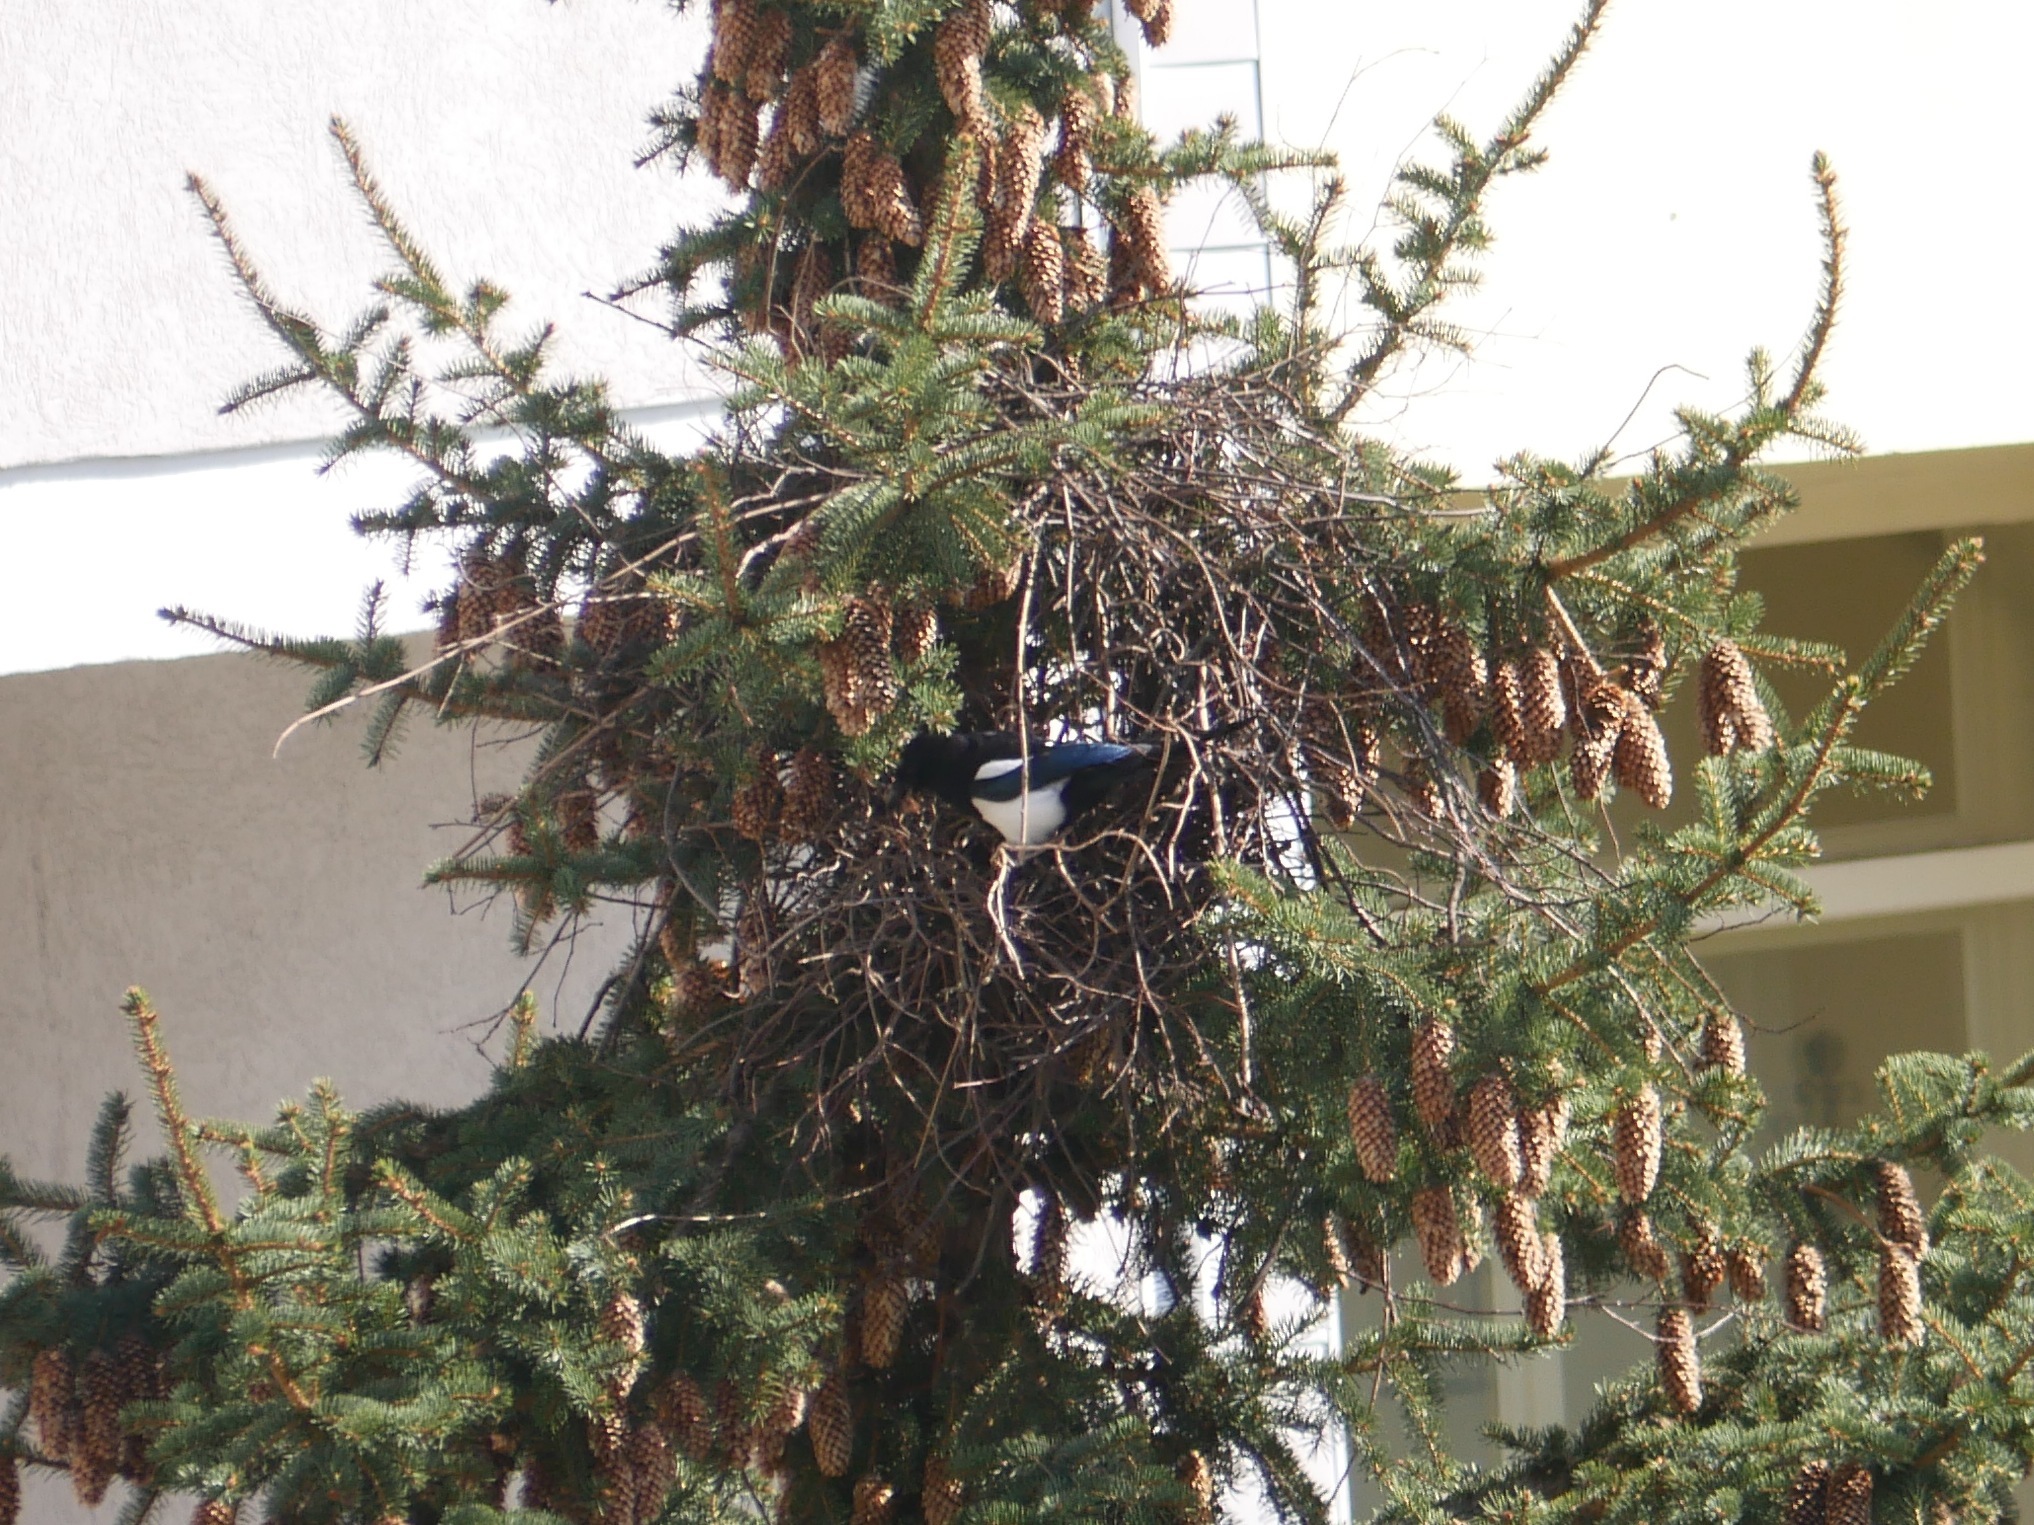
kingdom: Animalia
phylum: Chordata
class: Aves
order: Passeriformes
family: Corvidae
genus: Pica
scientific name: Pica pica
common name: Eurasian magpie
